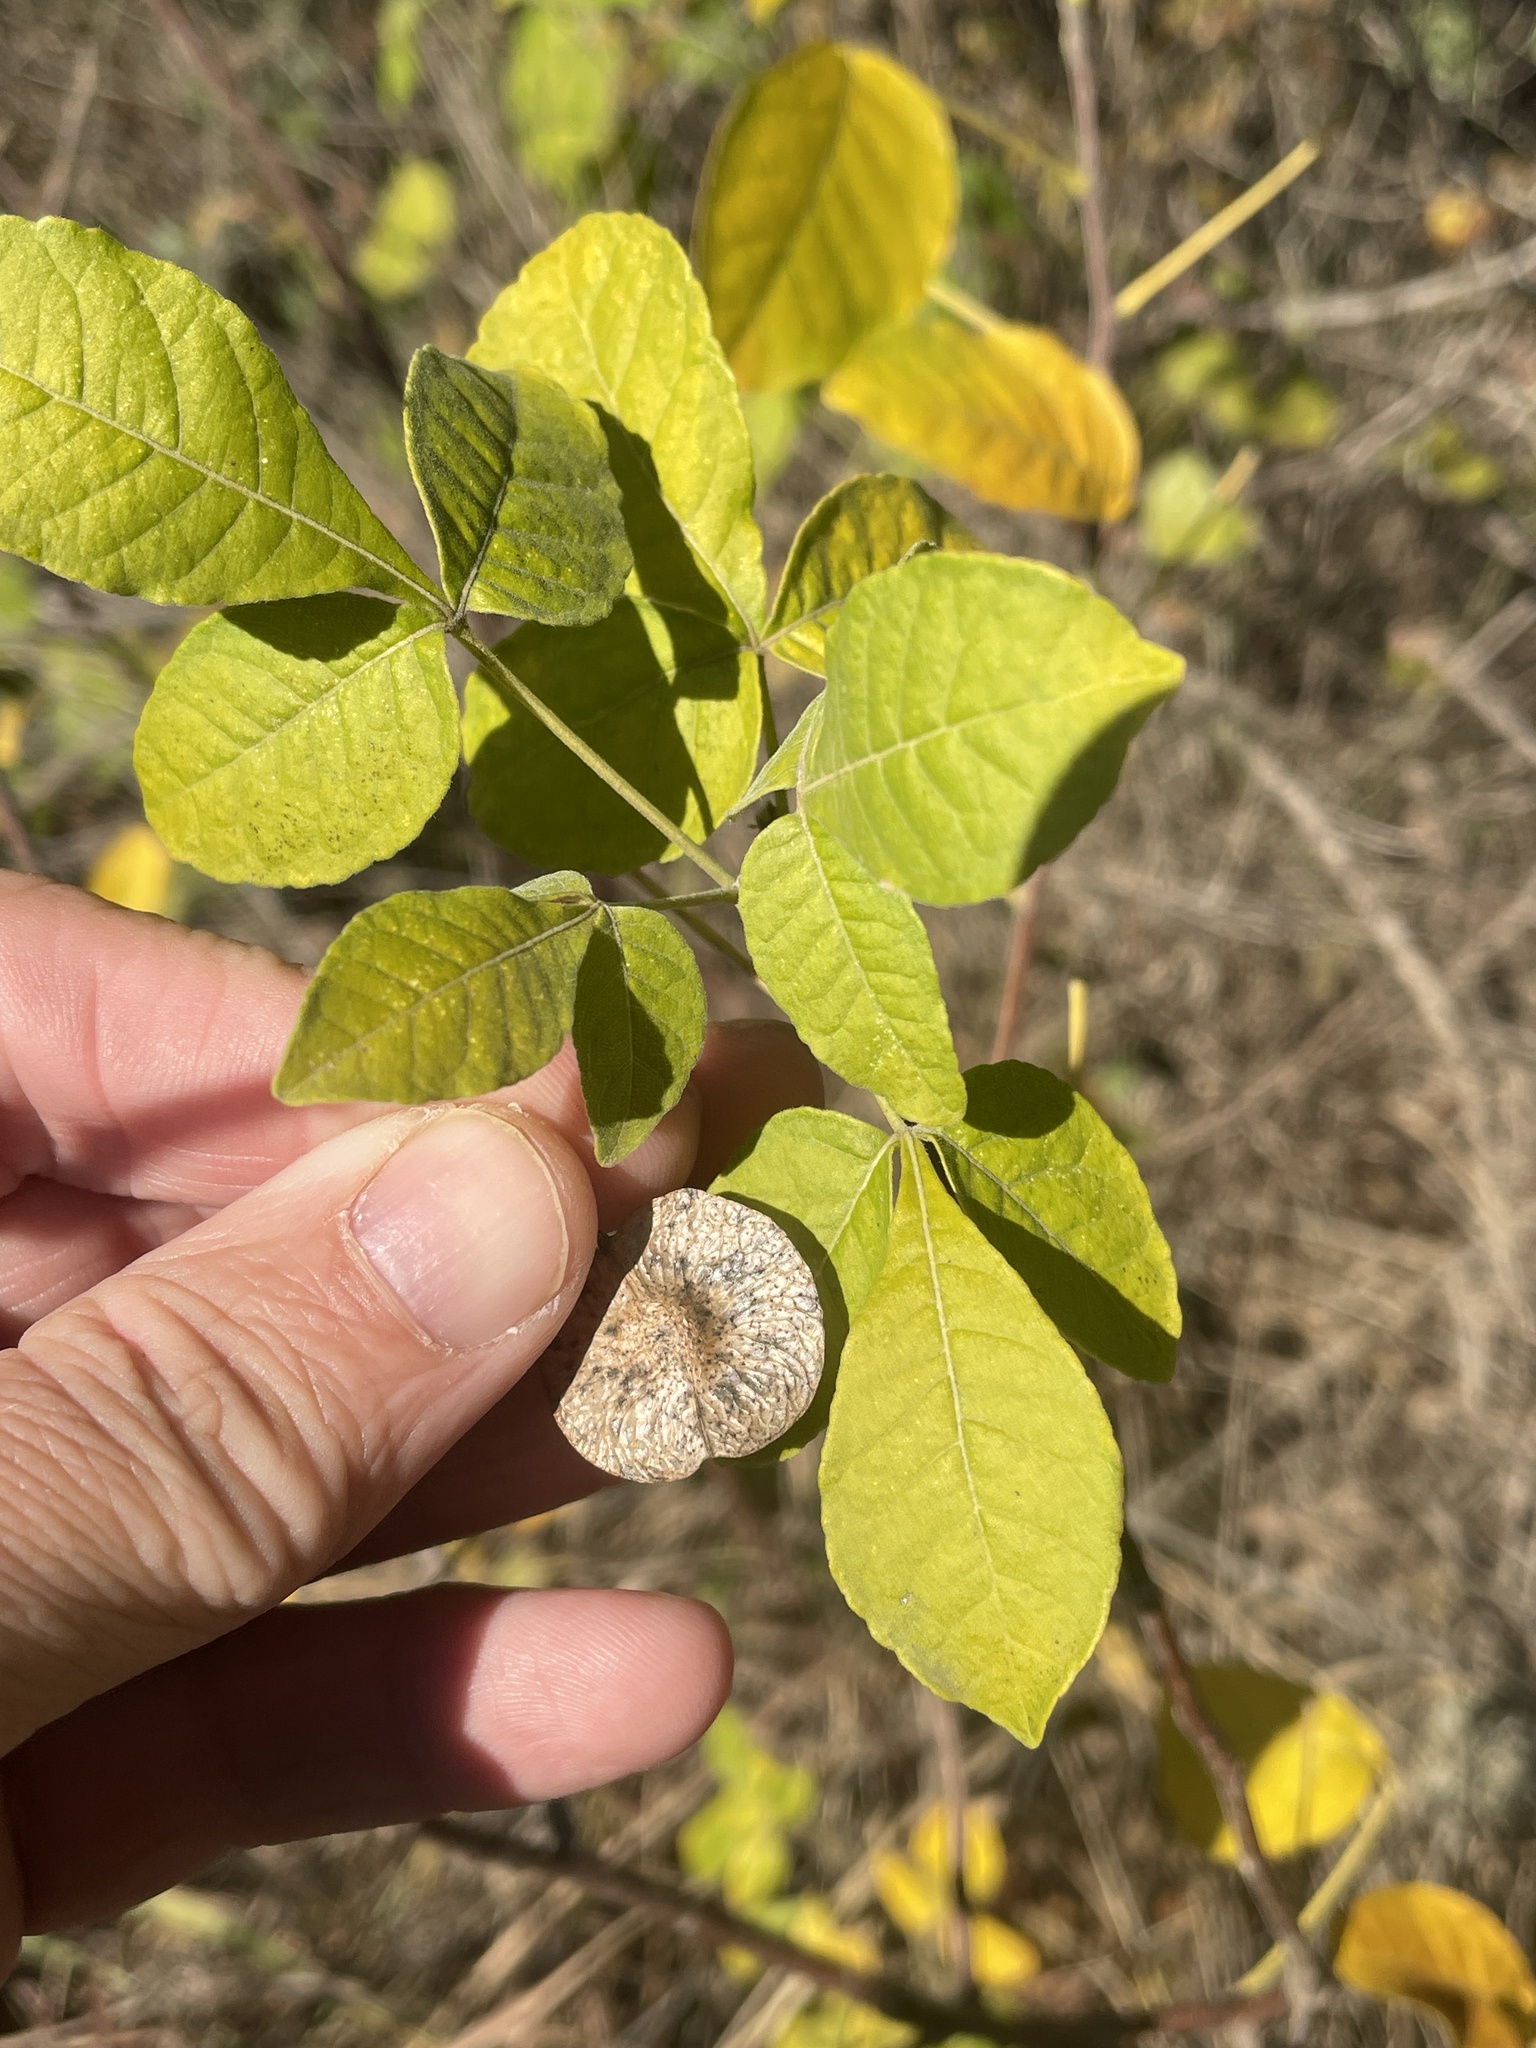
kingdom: Plantae
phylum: Tracheophyta
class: Magnoliopsida
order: Sapindales
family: Rutaceae
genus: Ptelea
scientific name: Ptelea trifoliata
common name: Common hop-tree
